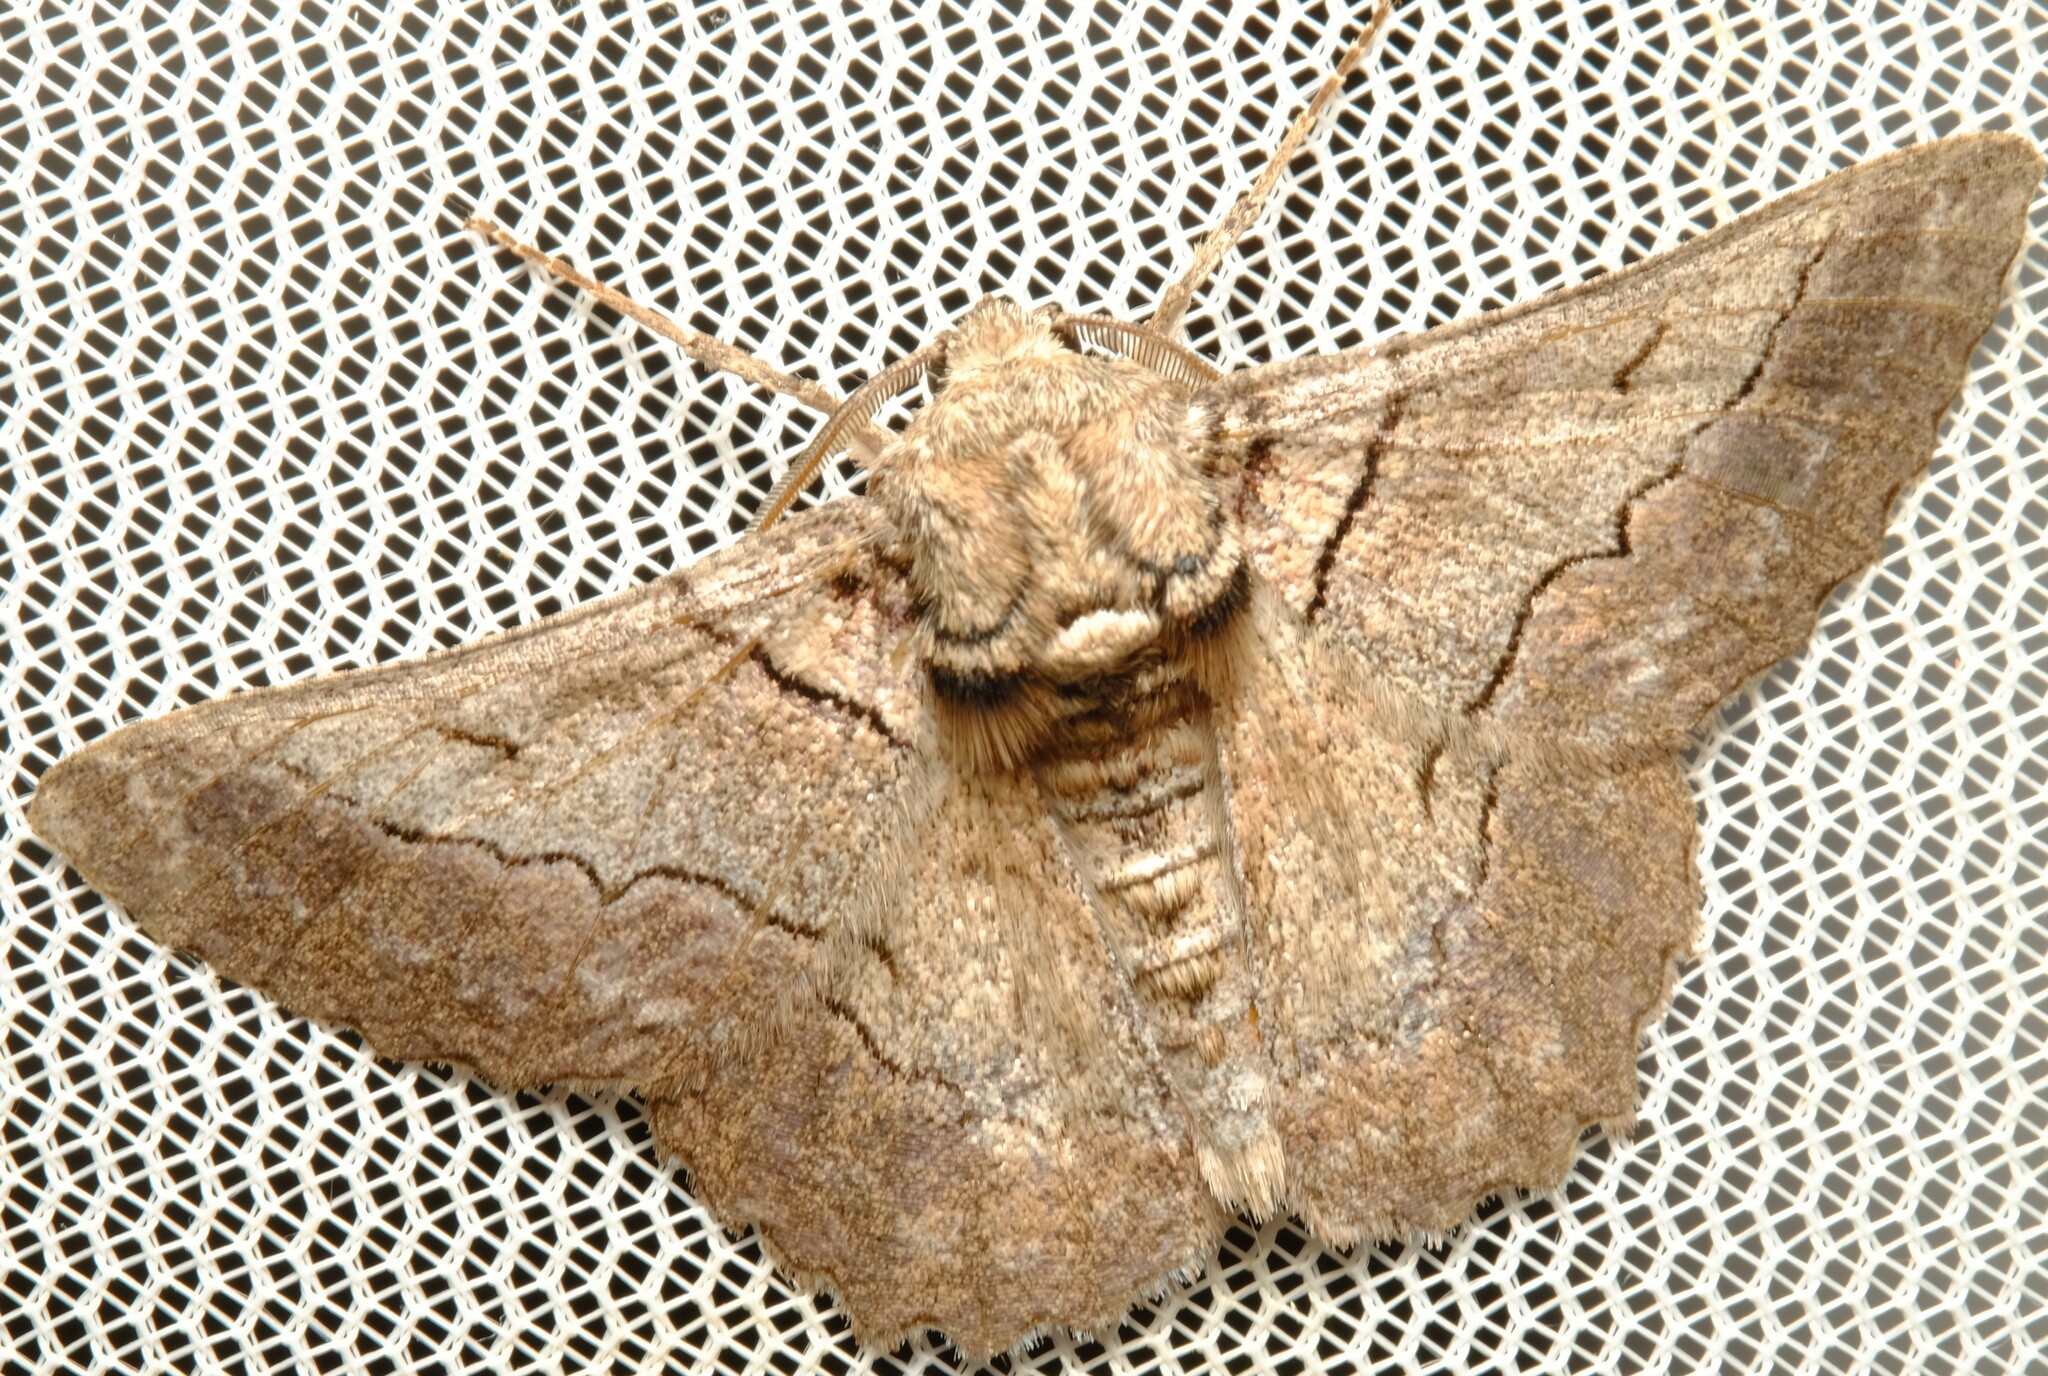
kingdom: Animalia
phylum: Arthropoda
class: Insecta
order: Lepidoptera
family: Geometridae
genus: Hypobapta
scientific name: Hypobapta tachyhalotaria
